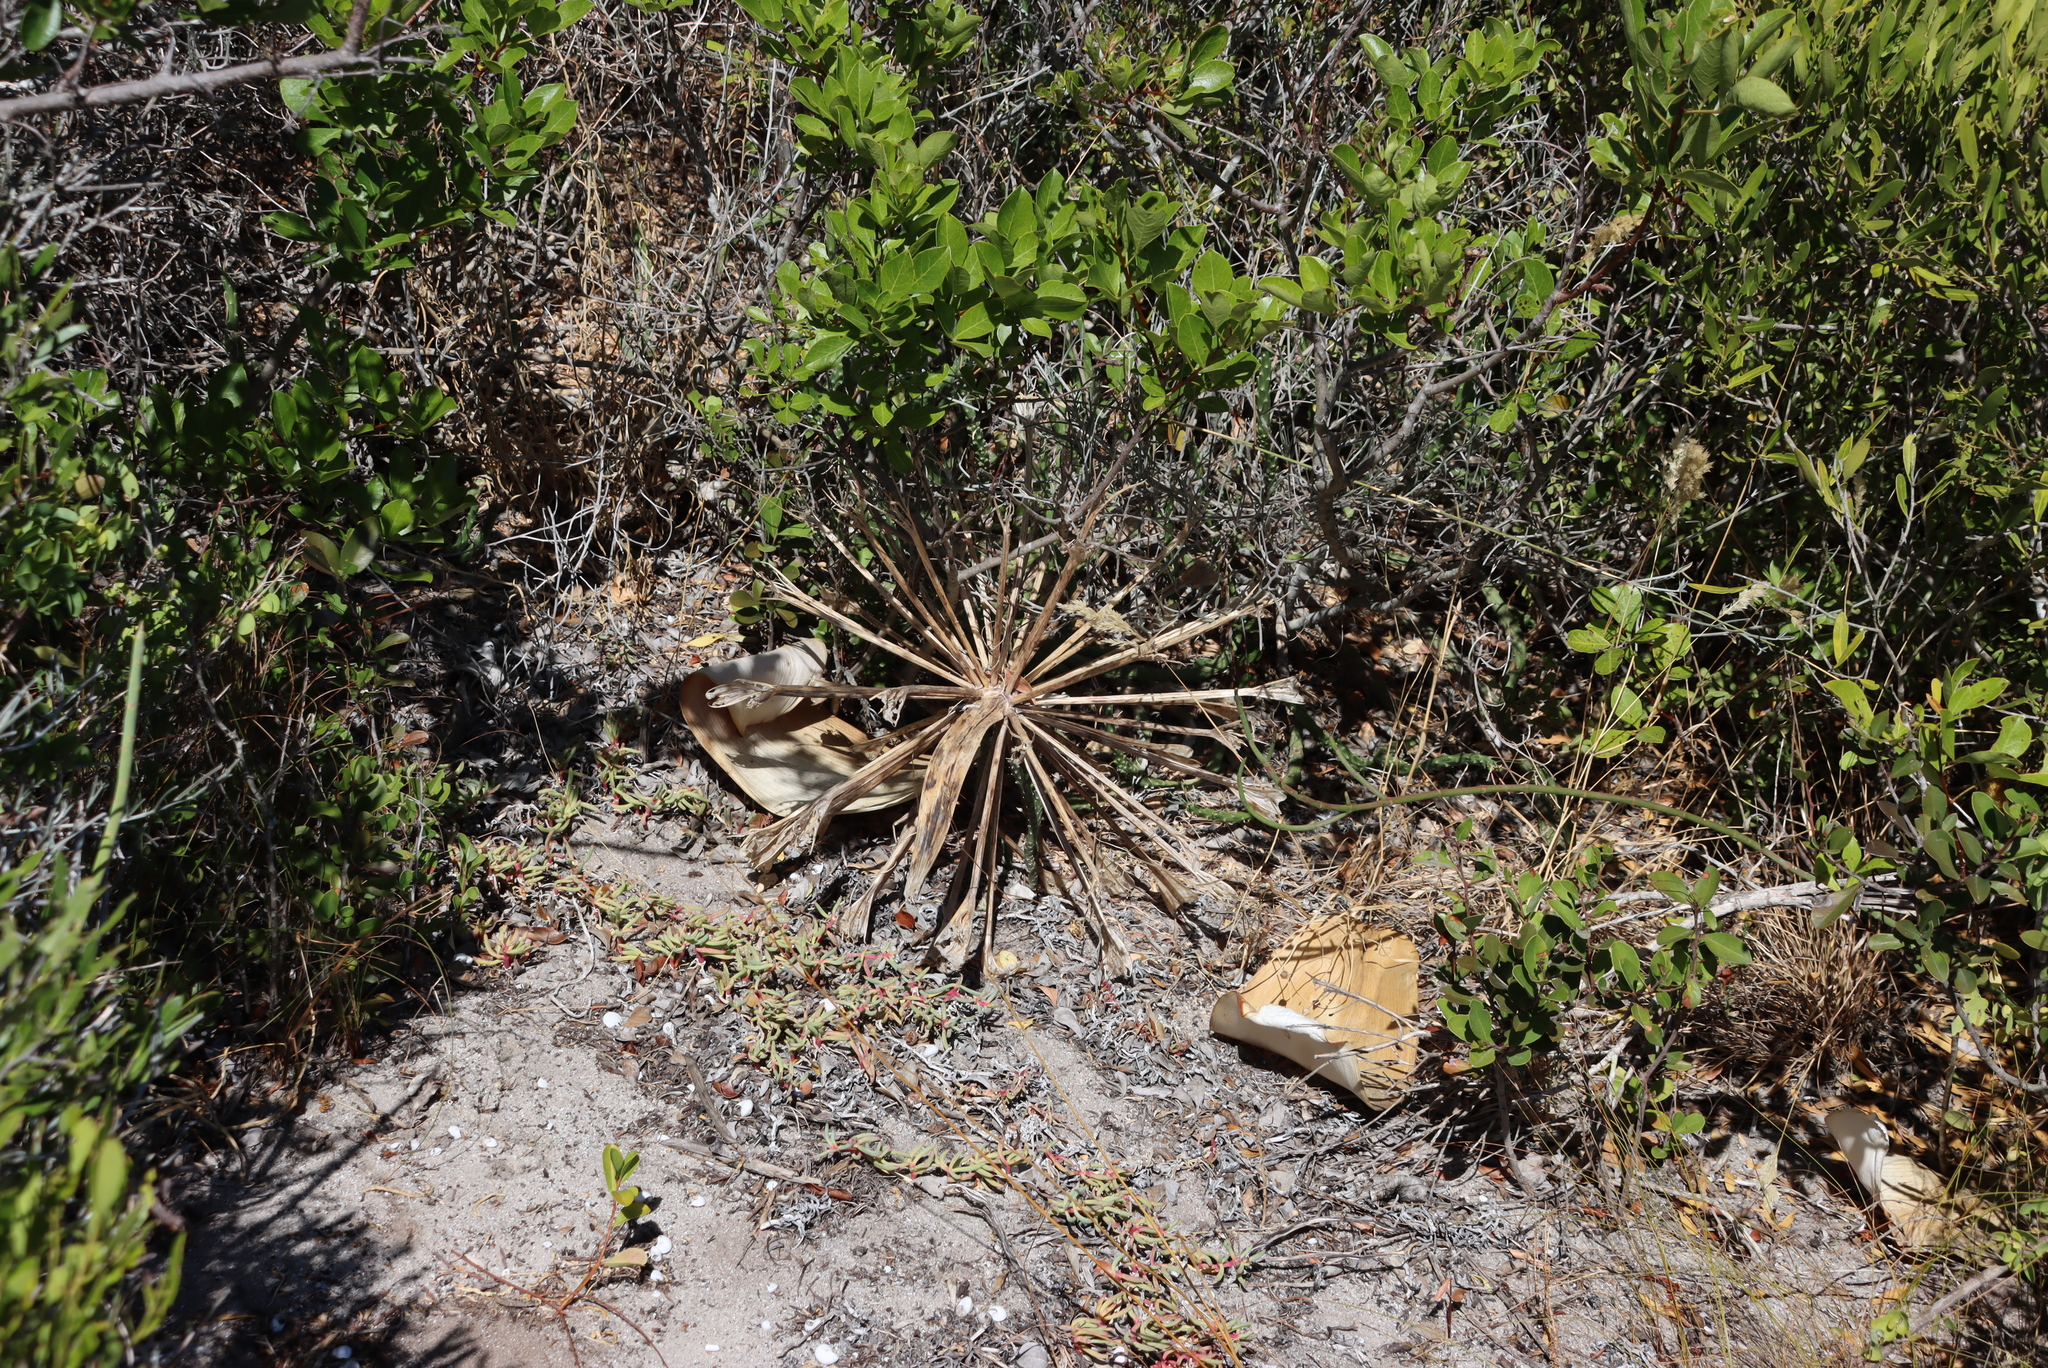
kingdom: Plantae
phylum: Tracheophyta
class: Liliopsida
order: Asparagales
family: Amaryllidaceae
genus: Brunsvigia
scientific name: Brunsvigia orientalis
